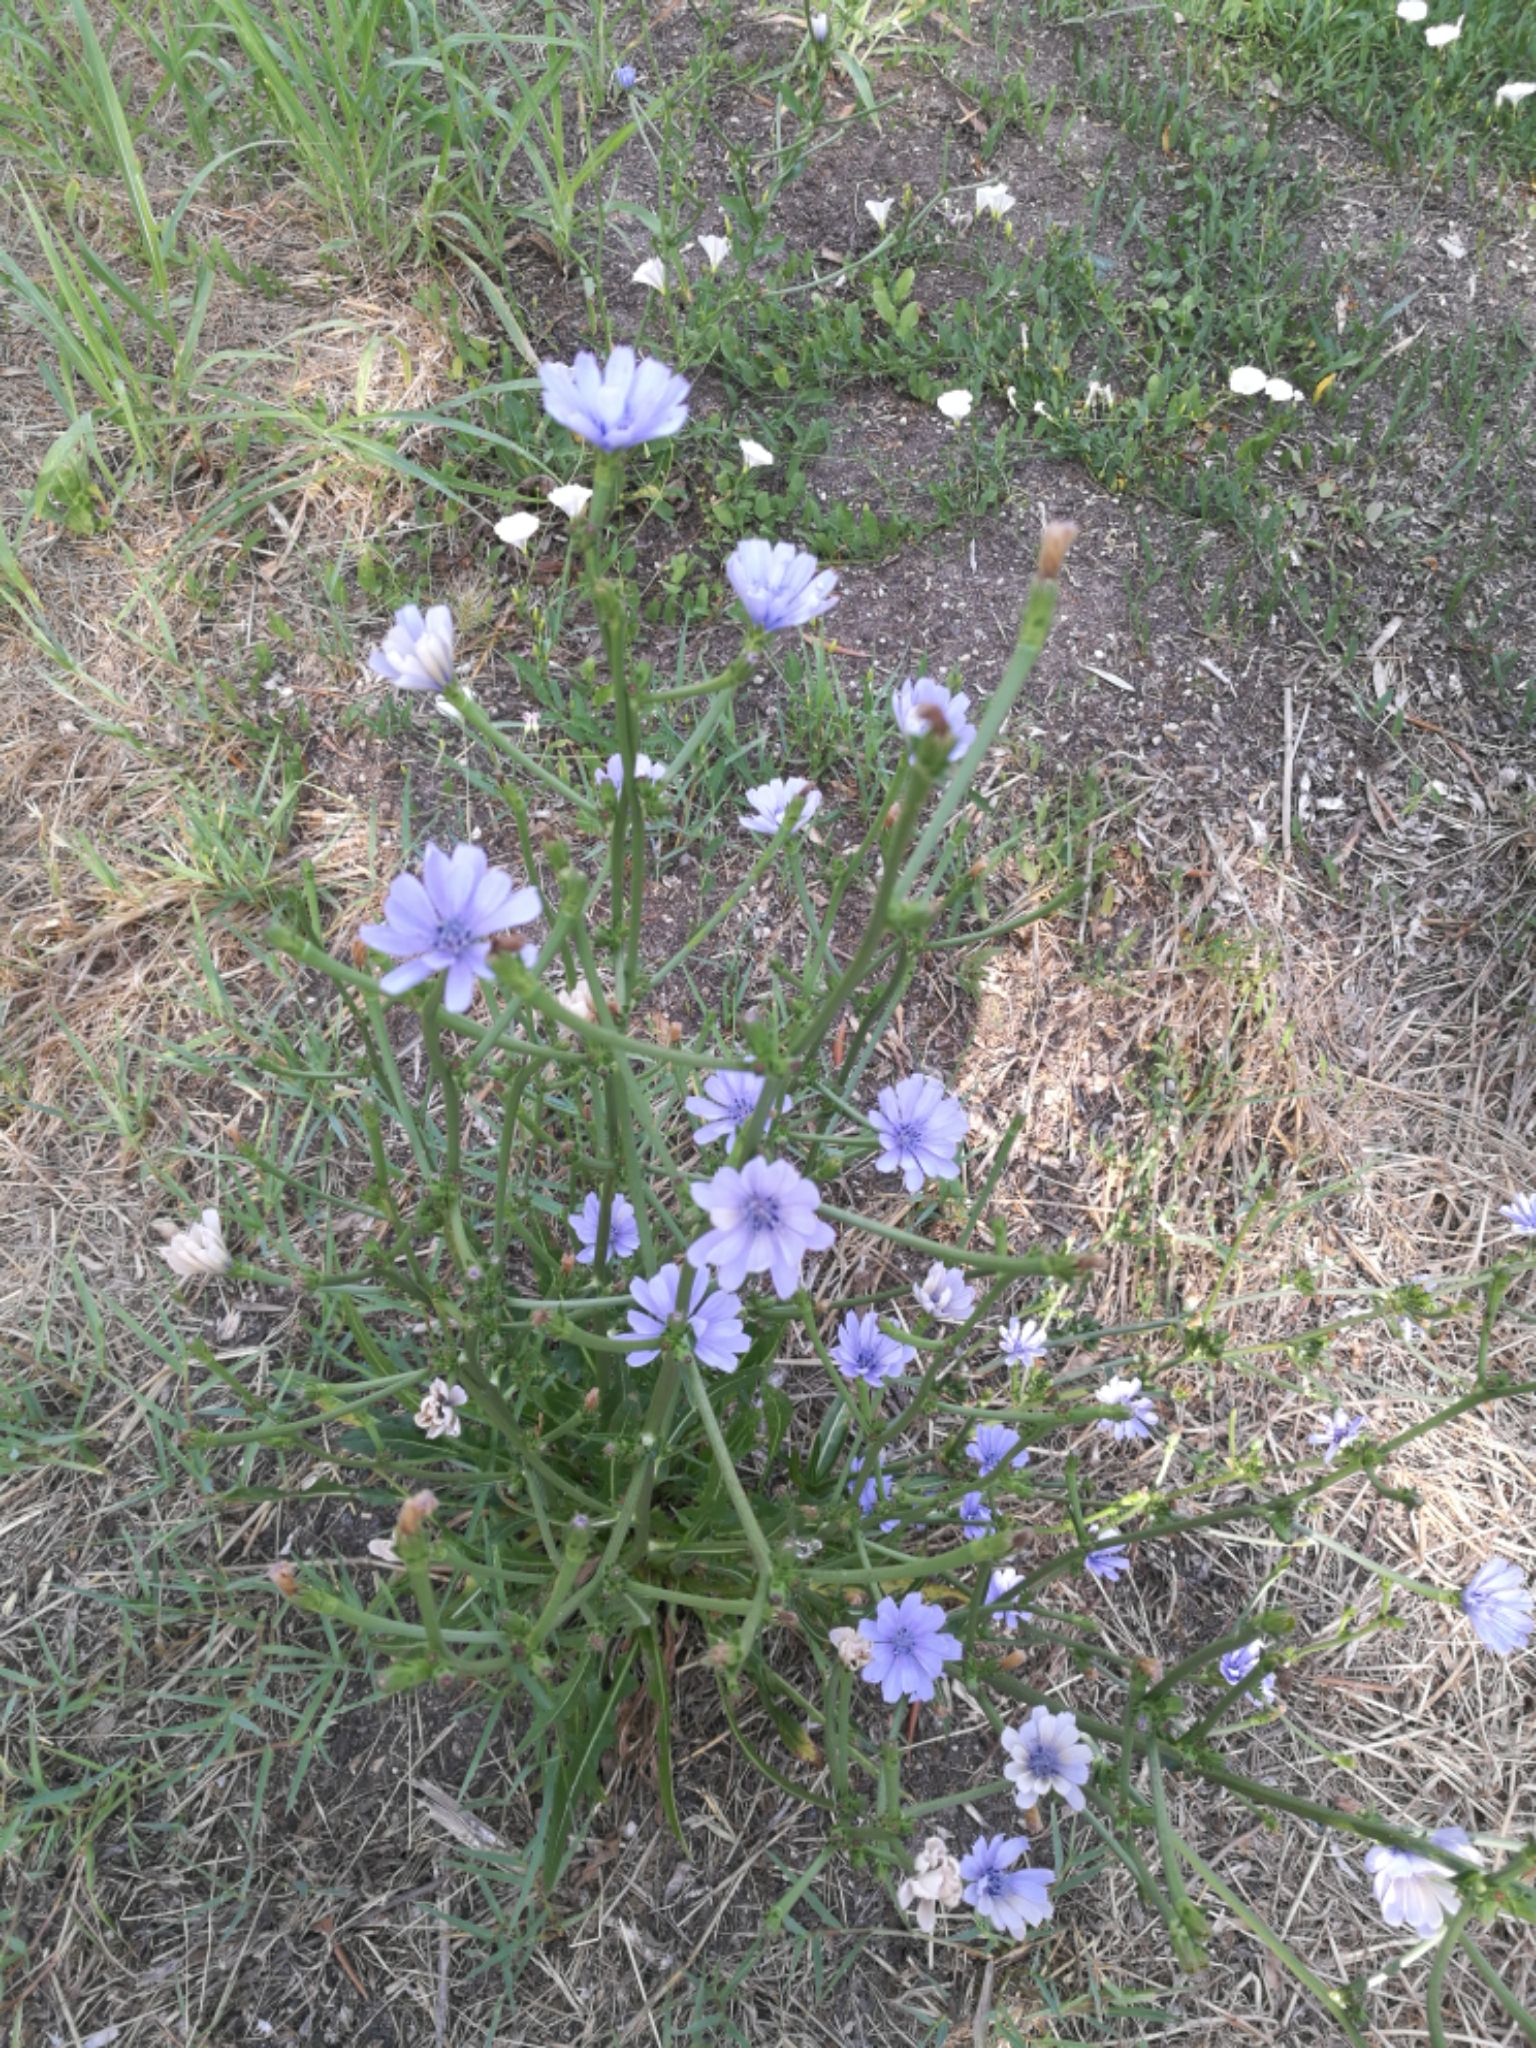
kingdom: Plantae
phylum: Tracheophyta
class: Magnoliopsida
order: Asterales
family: Asteraceae
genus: Cichorium
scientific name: Cichorium intybus
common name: Chicory
